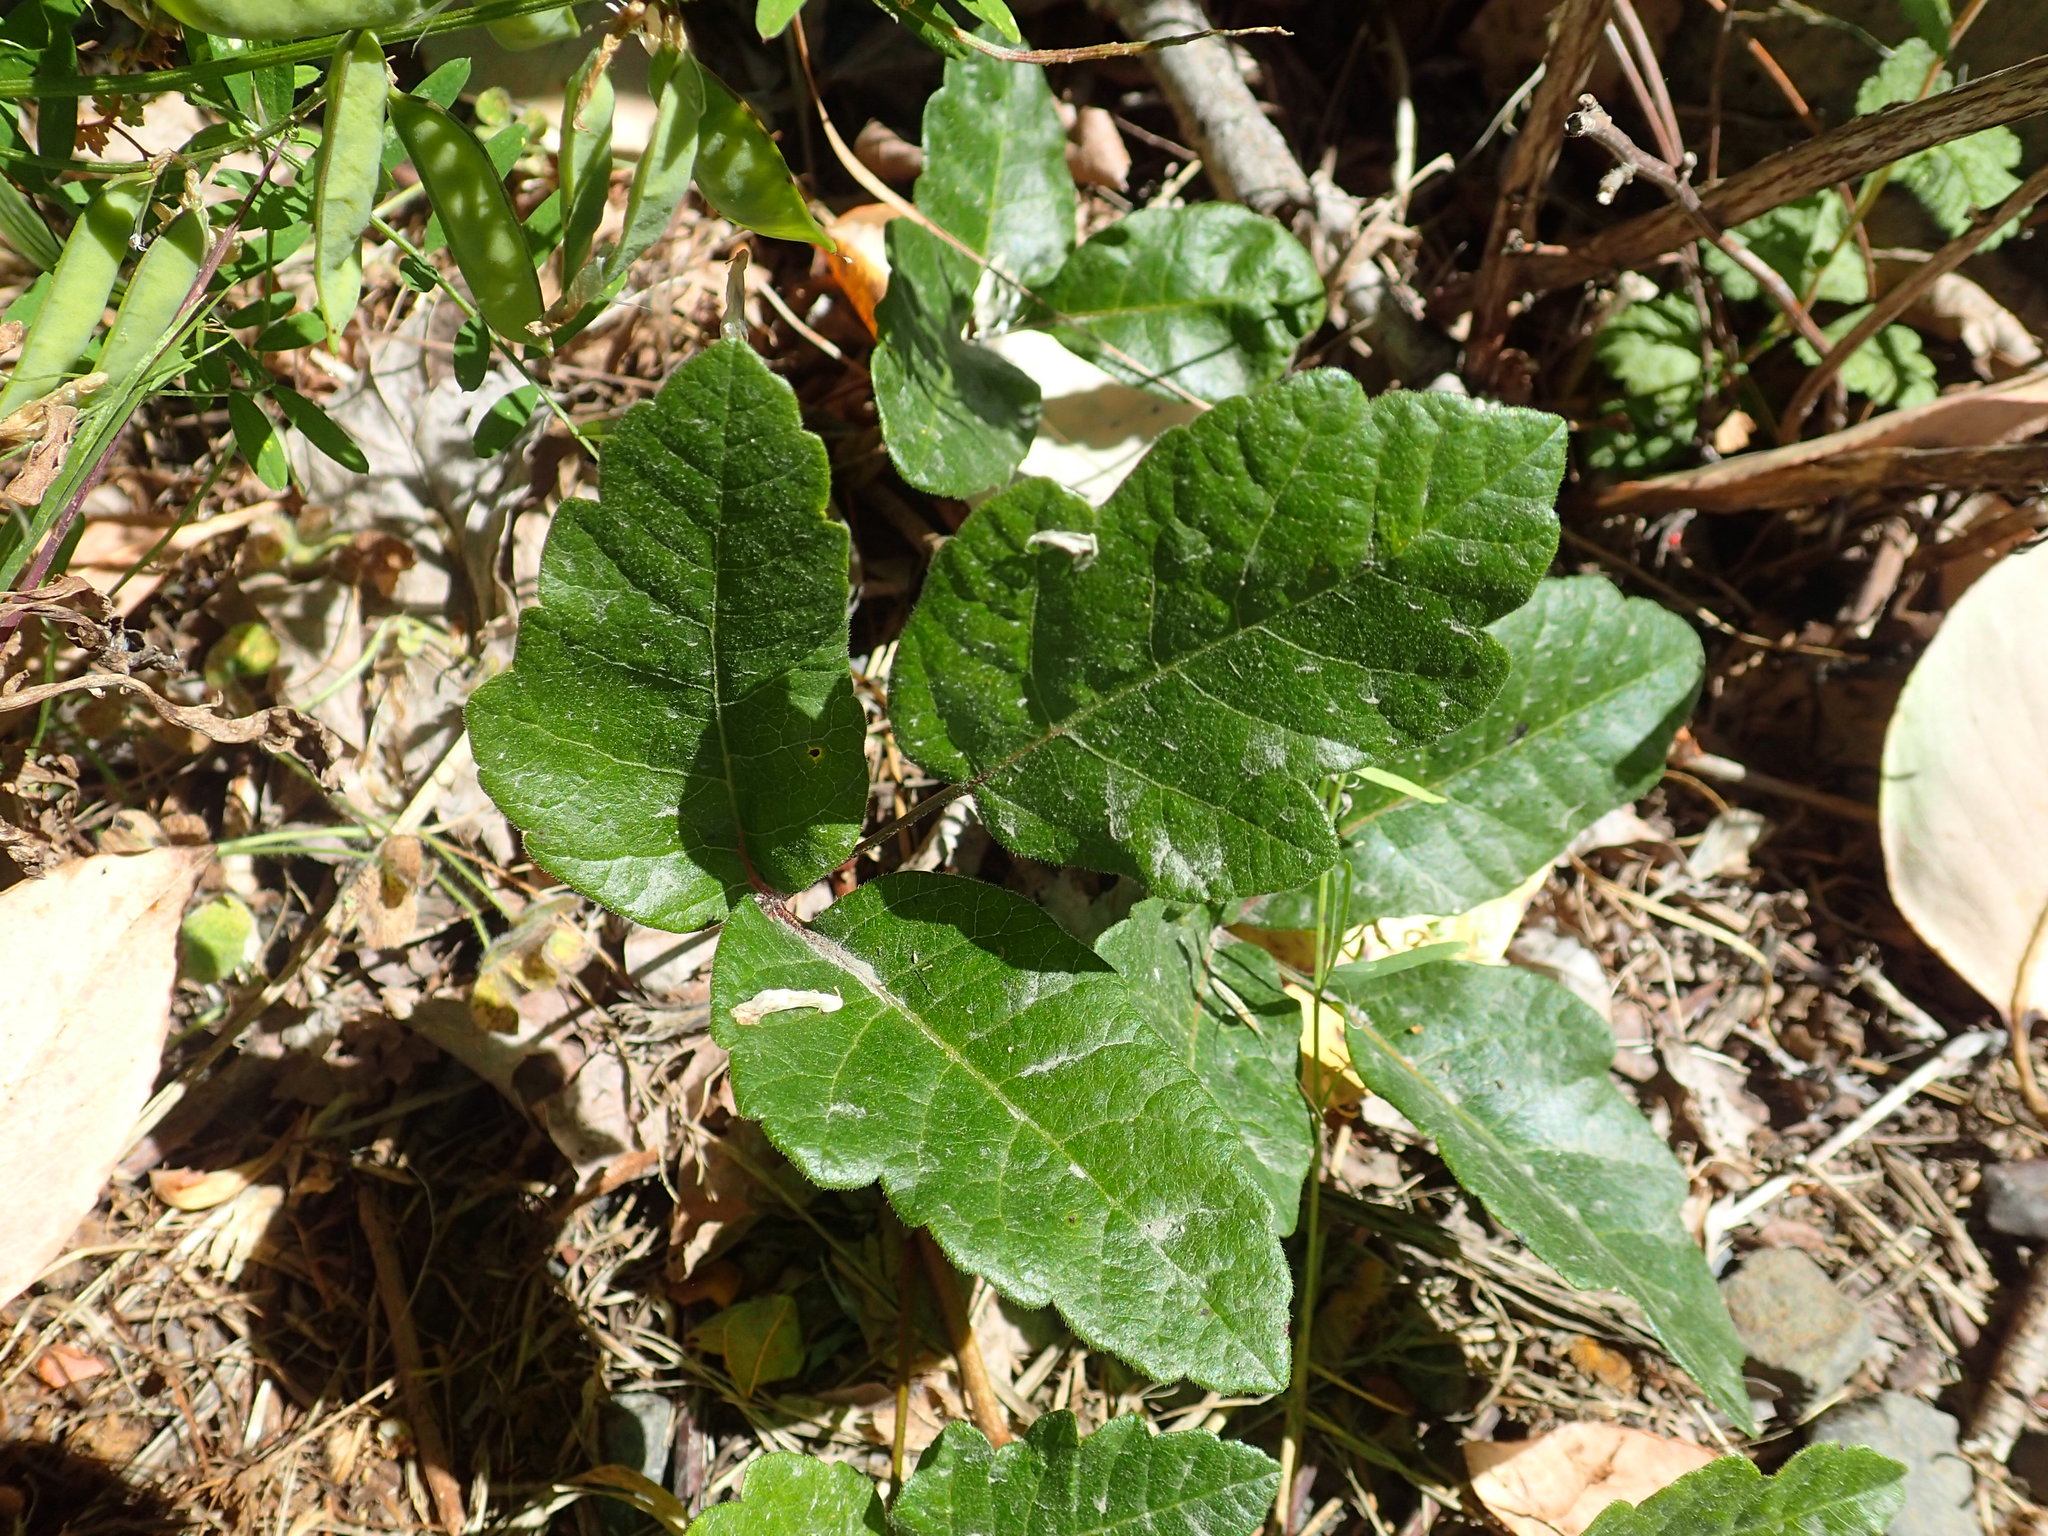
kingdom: Plantae
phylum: Tracheophyta
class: Magnoliopsida
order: Sapindales
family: Anacardiaceae
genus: Toxicodendron
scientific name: Toxicodendron diversilobum
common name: Pacific poison-oak
